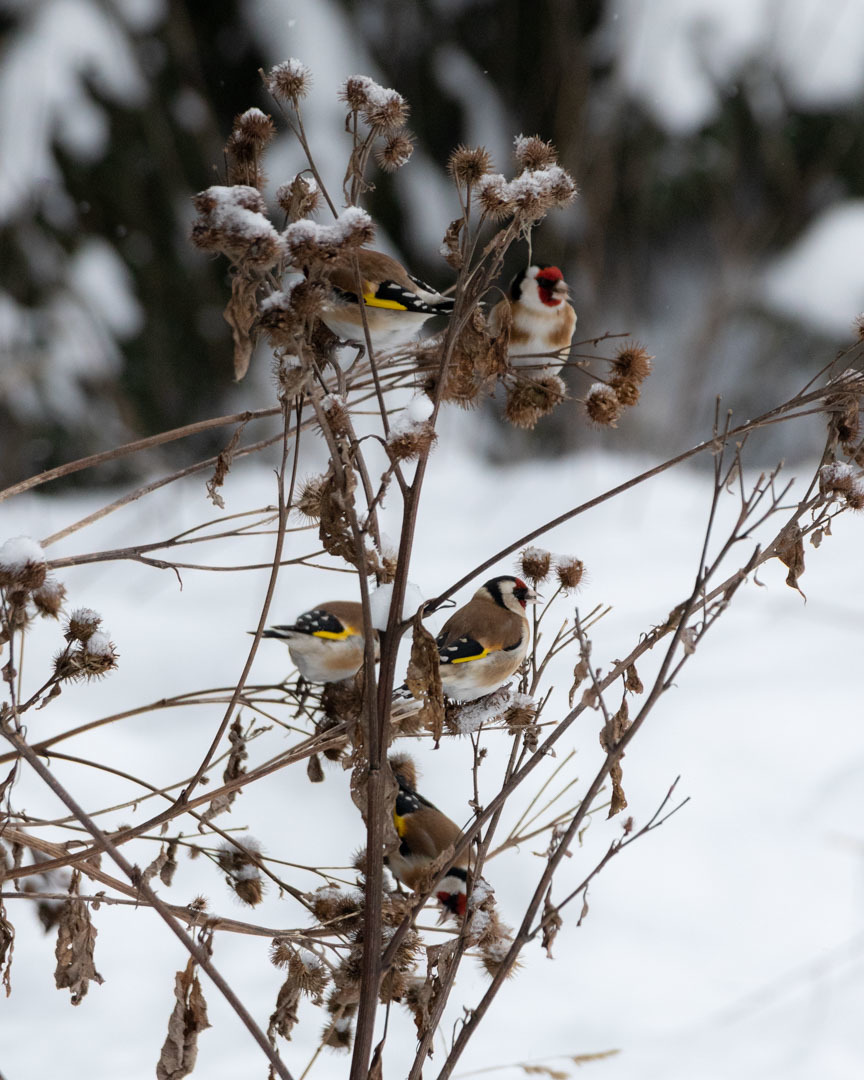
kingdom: Animalia
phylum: Chordata
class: Aves
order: Passeriformes
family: Fringillidae
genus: Carduelis
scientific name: Carduelis carduelis
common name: European goldfinch
